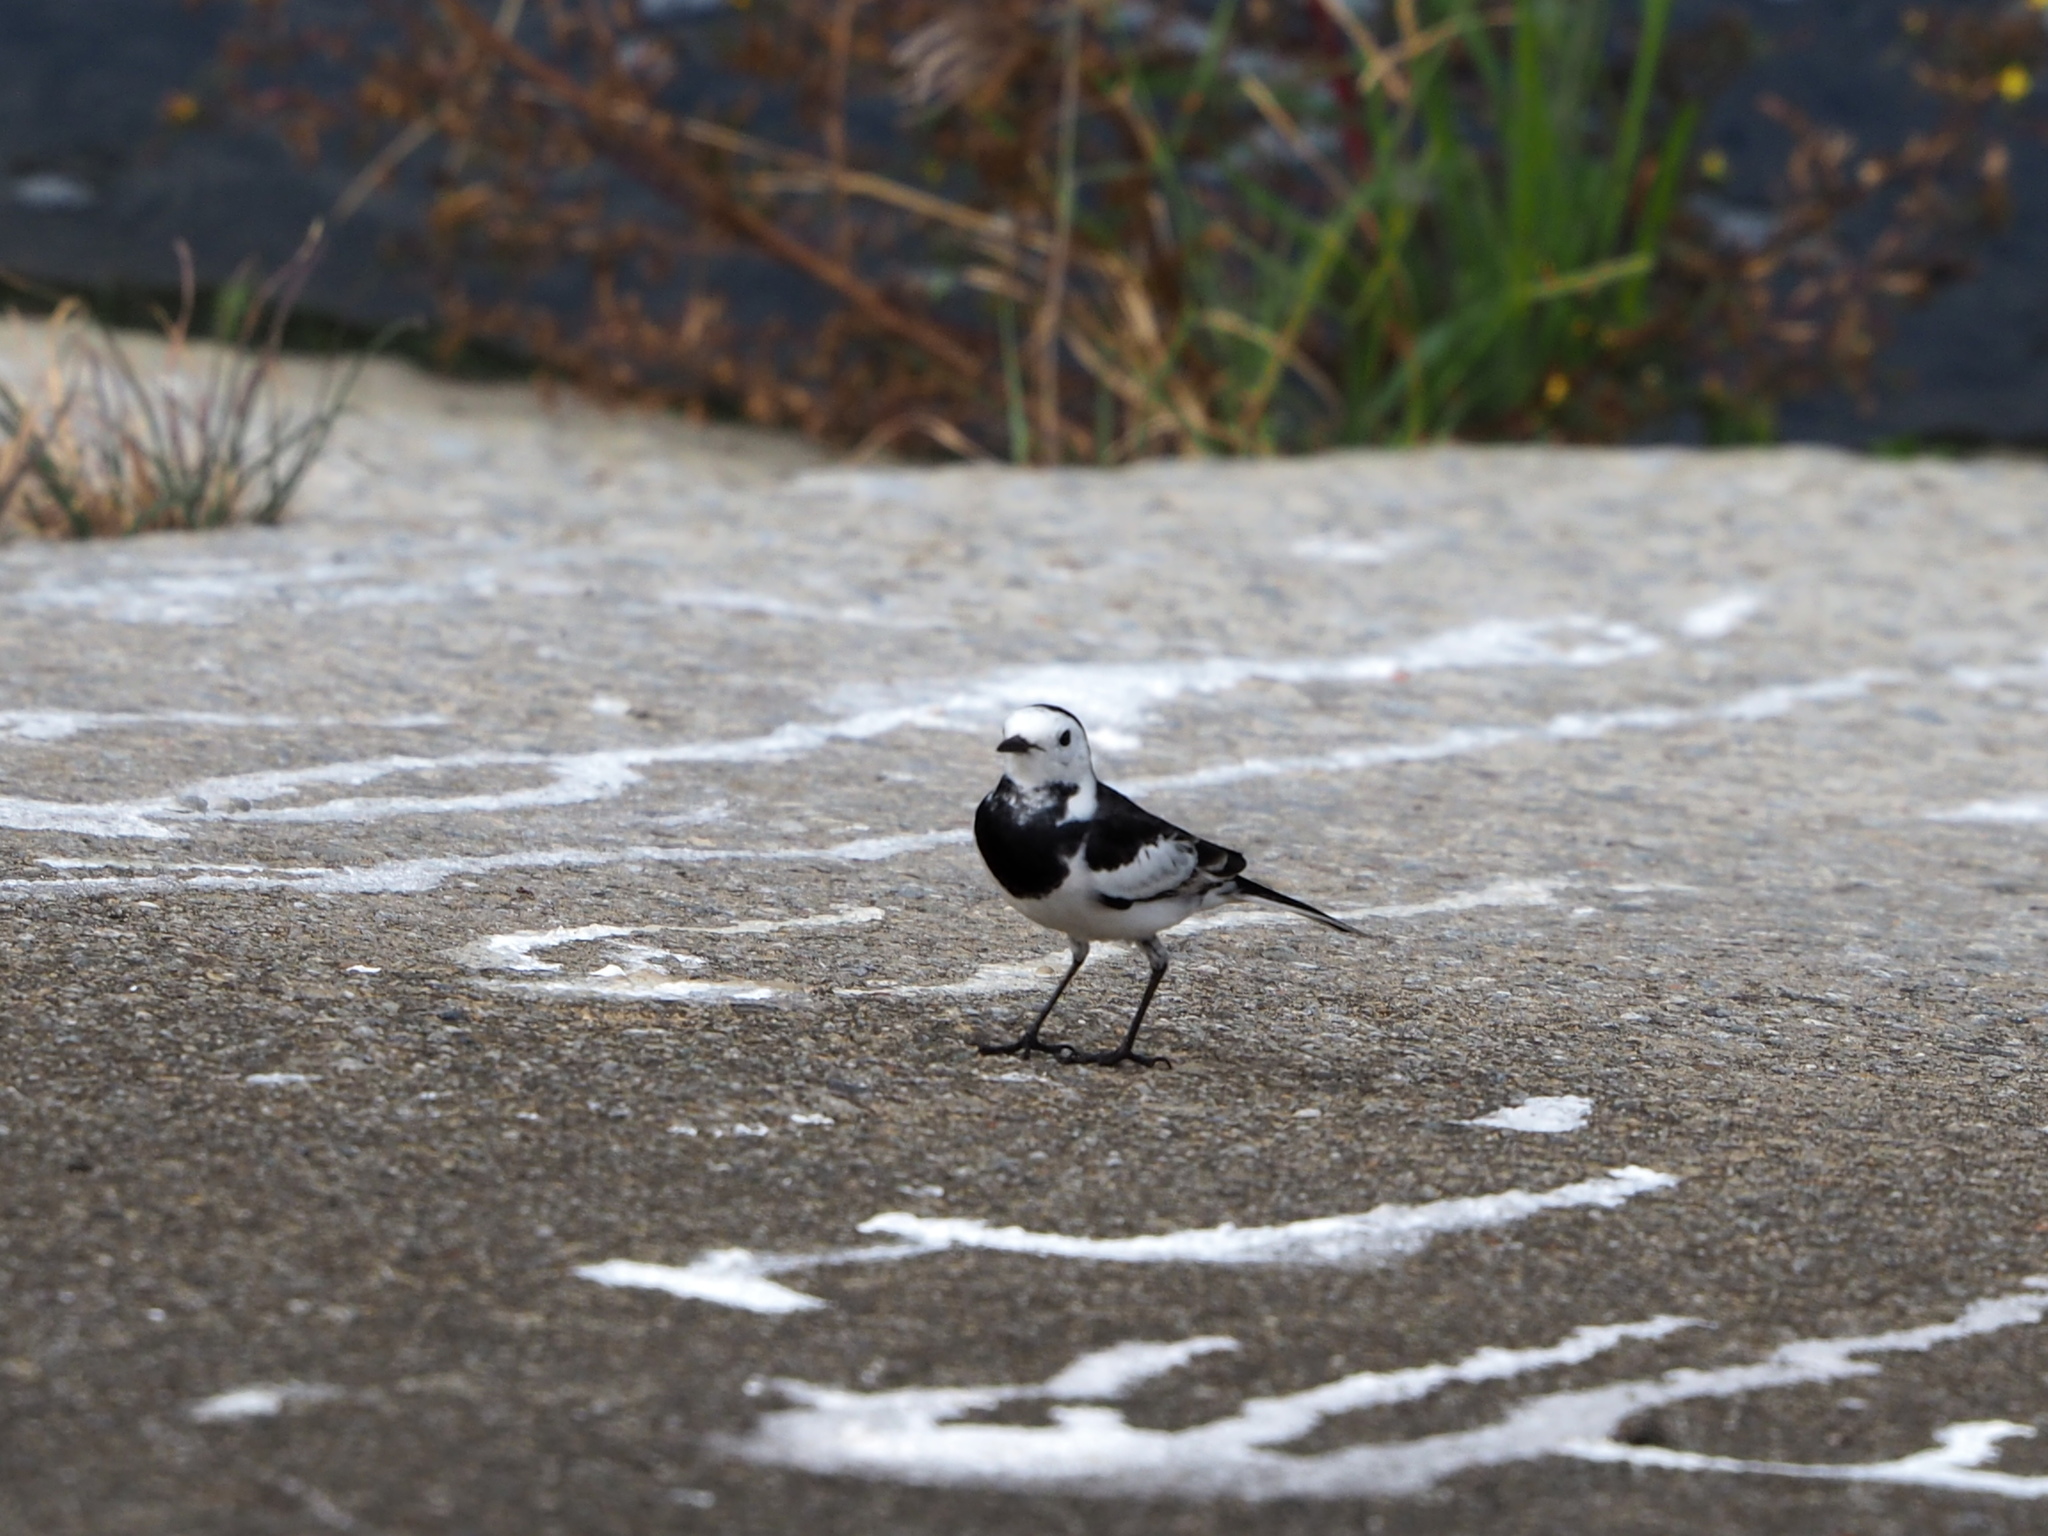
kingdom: Animalia
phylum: Chordata
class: Aves
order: Passeriformes
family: Motacillidae
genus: Motacilla
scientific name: Motacilla alba
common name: White wagtail
